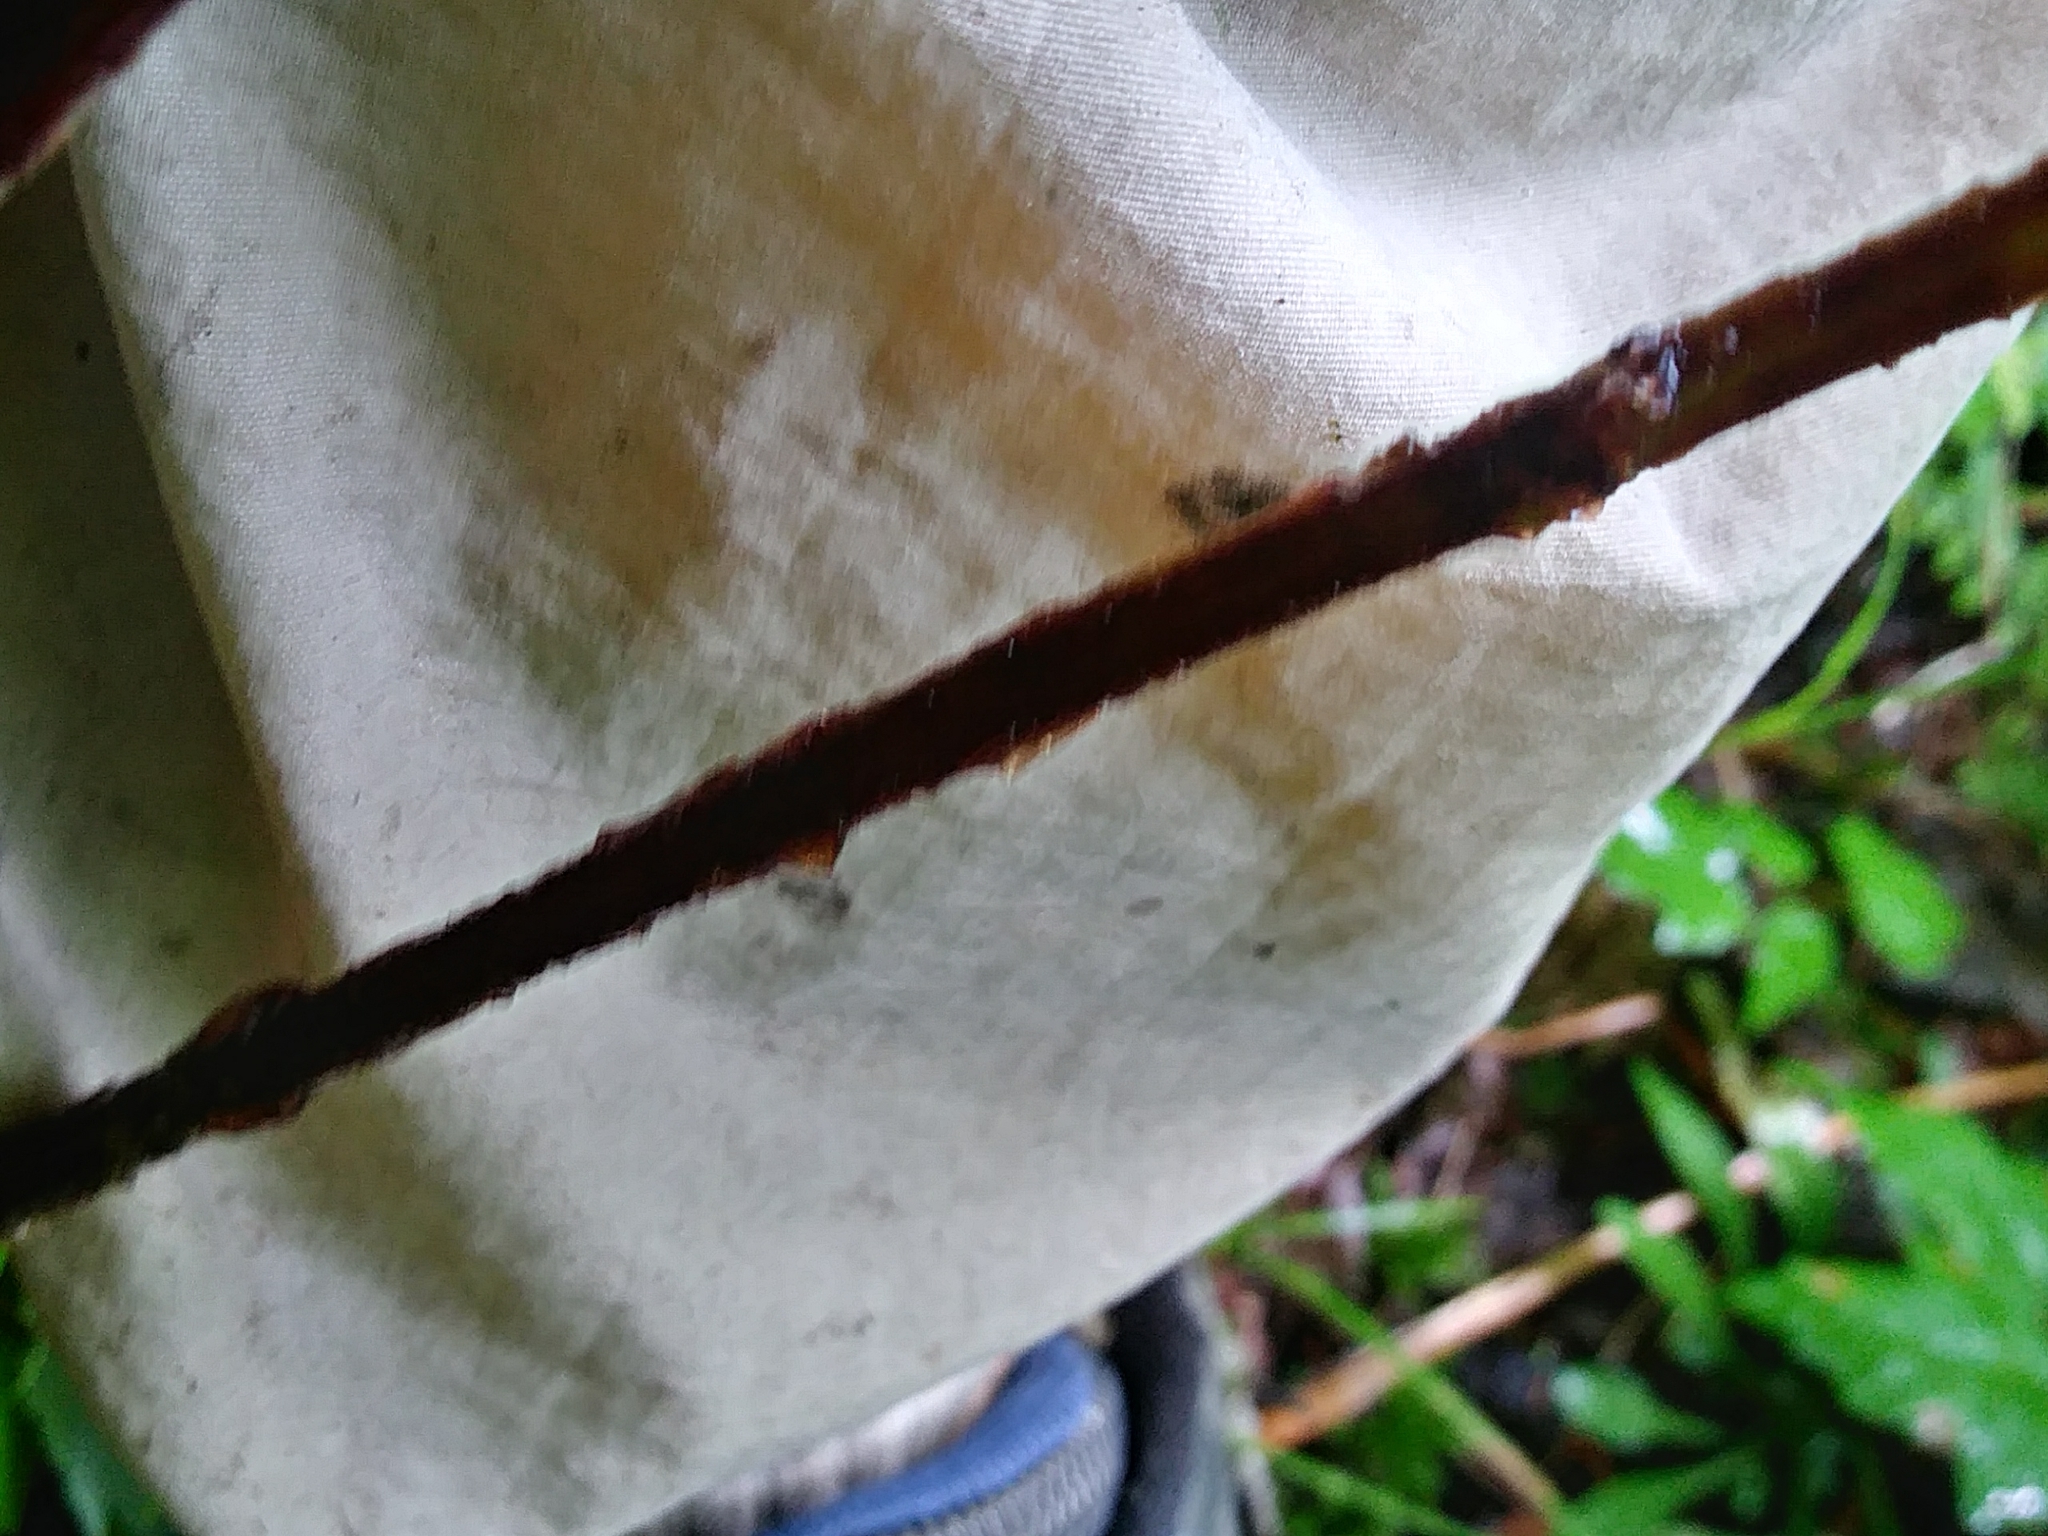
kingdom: Plantae
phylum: Tracheophyta
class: Polypodiopsida
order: Polypodiales
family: Dryopteridaceae
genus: Dryopteris
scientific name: Dryopteris cristata
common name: Crested wood fern
